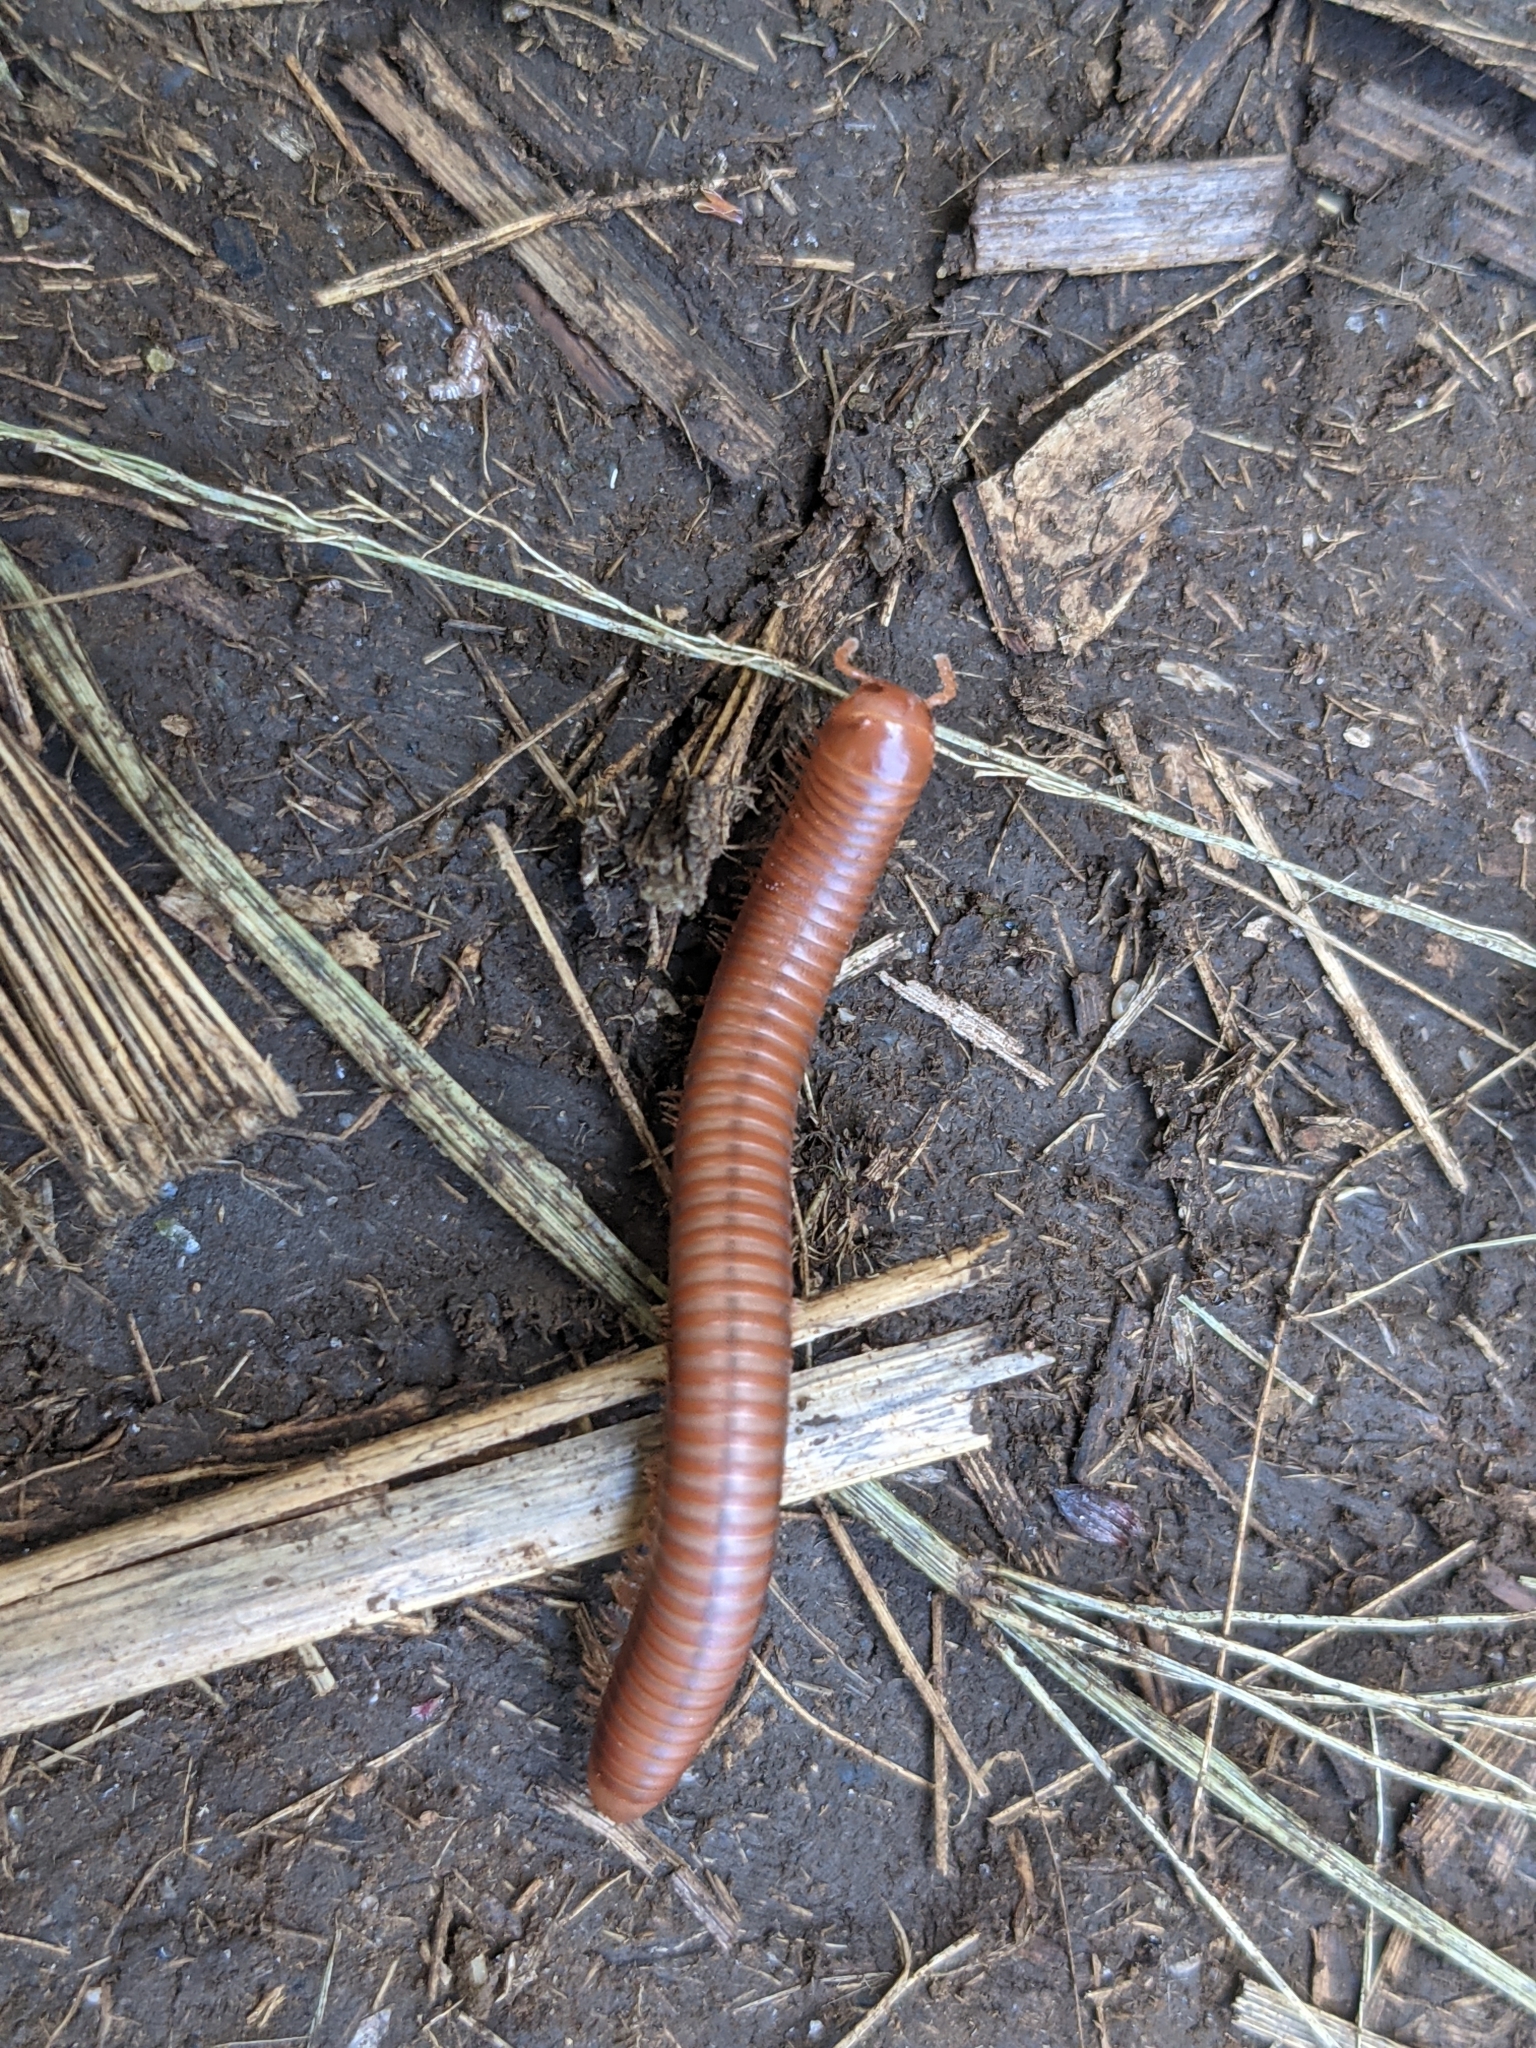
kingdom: Animalia
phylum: Arthropoda
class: Diplopoda
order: Spirobolida
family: Pachybolidae
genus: Trigoniulus
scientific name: Trigoniulus corallinus
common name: Millipede
